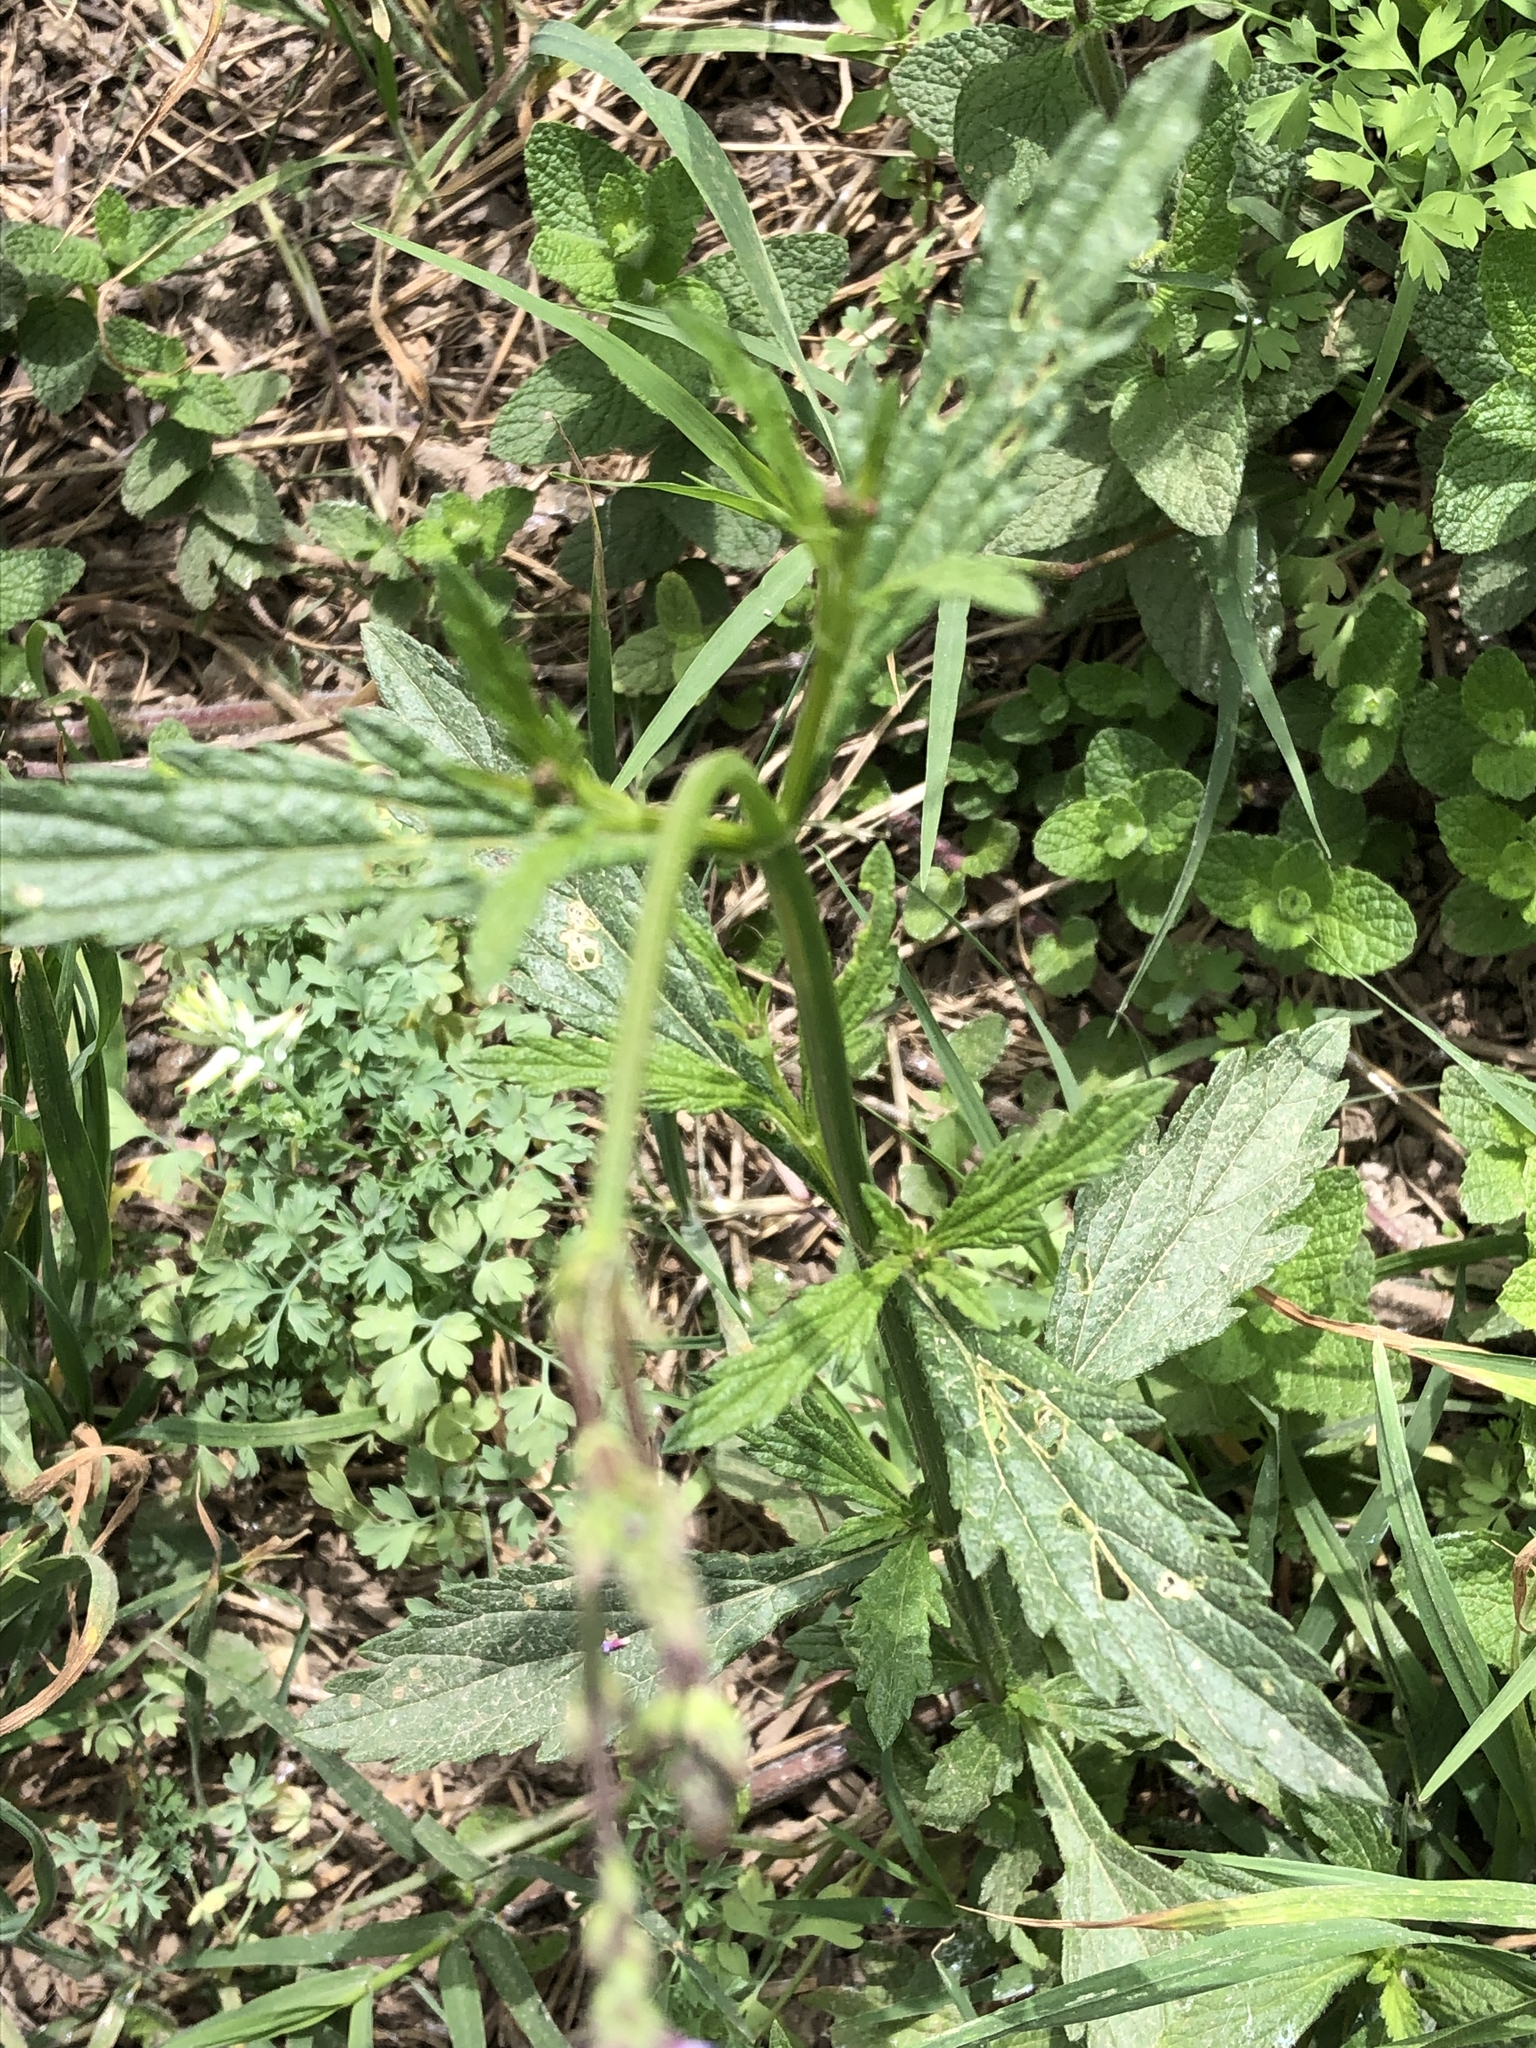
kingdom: Plantae
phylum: Tracheophyta
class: Magnoliopsida
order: Lamiales
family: Verbenaceae
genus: Verbena
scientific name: Verbena litoralis
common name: Seashore vervain
